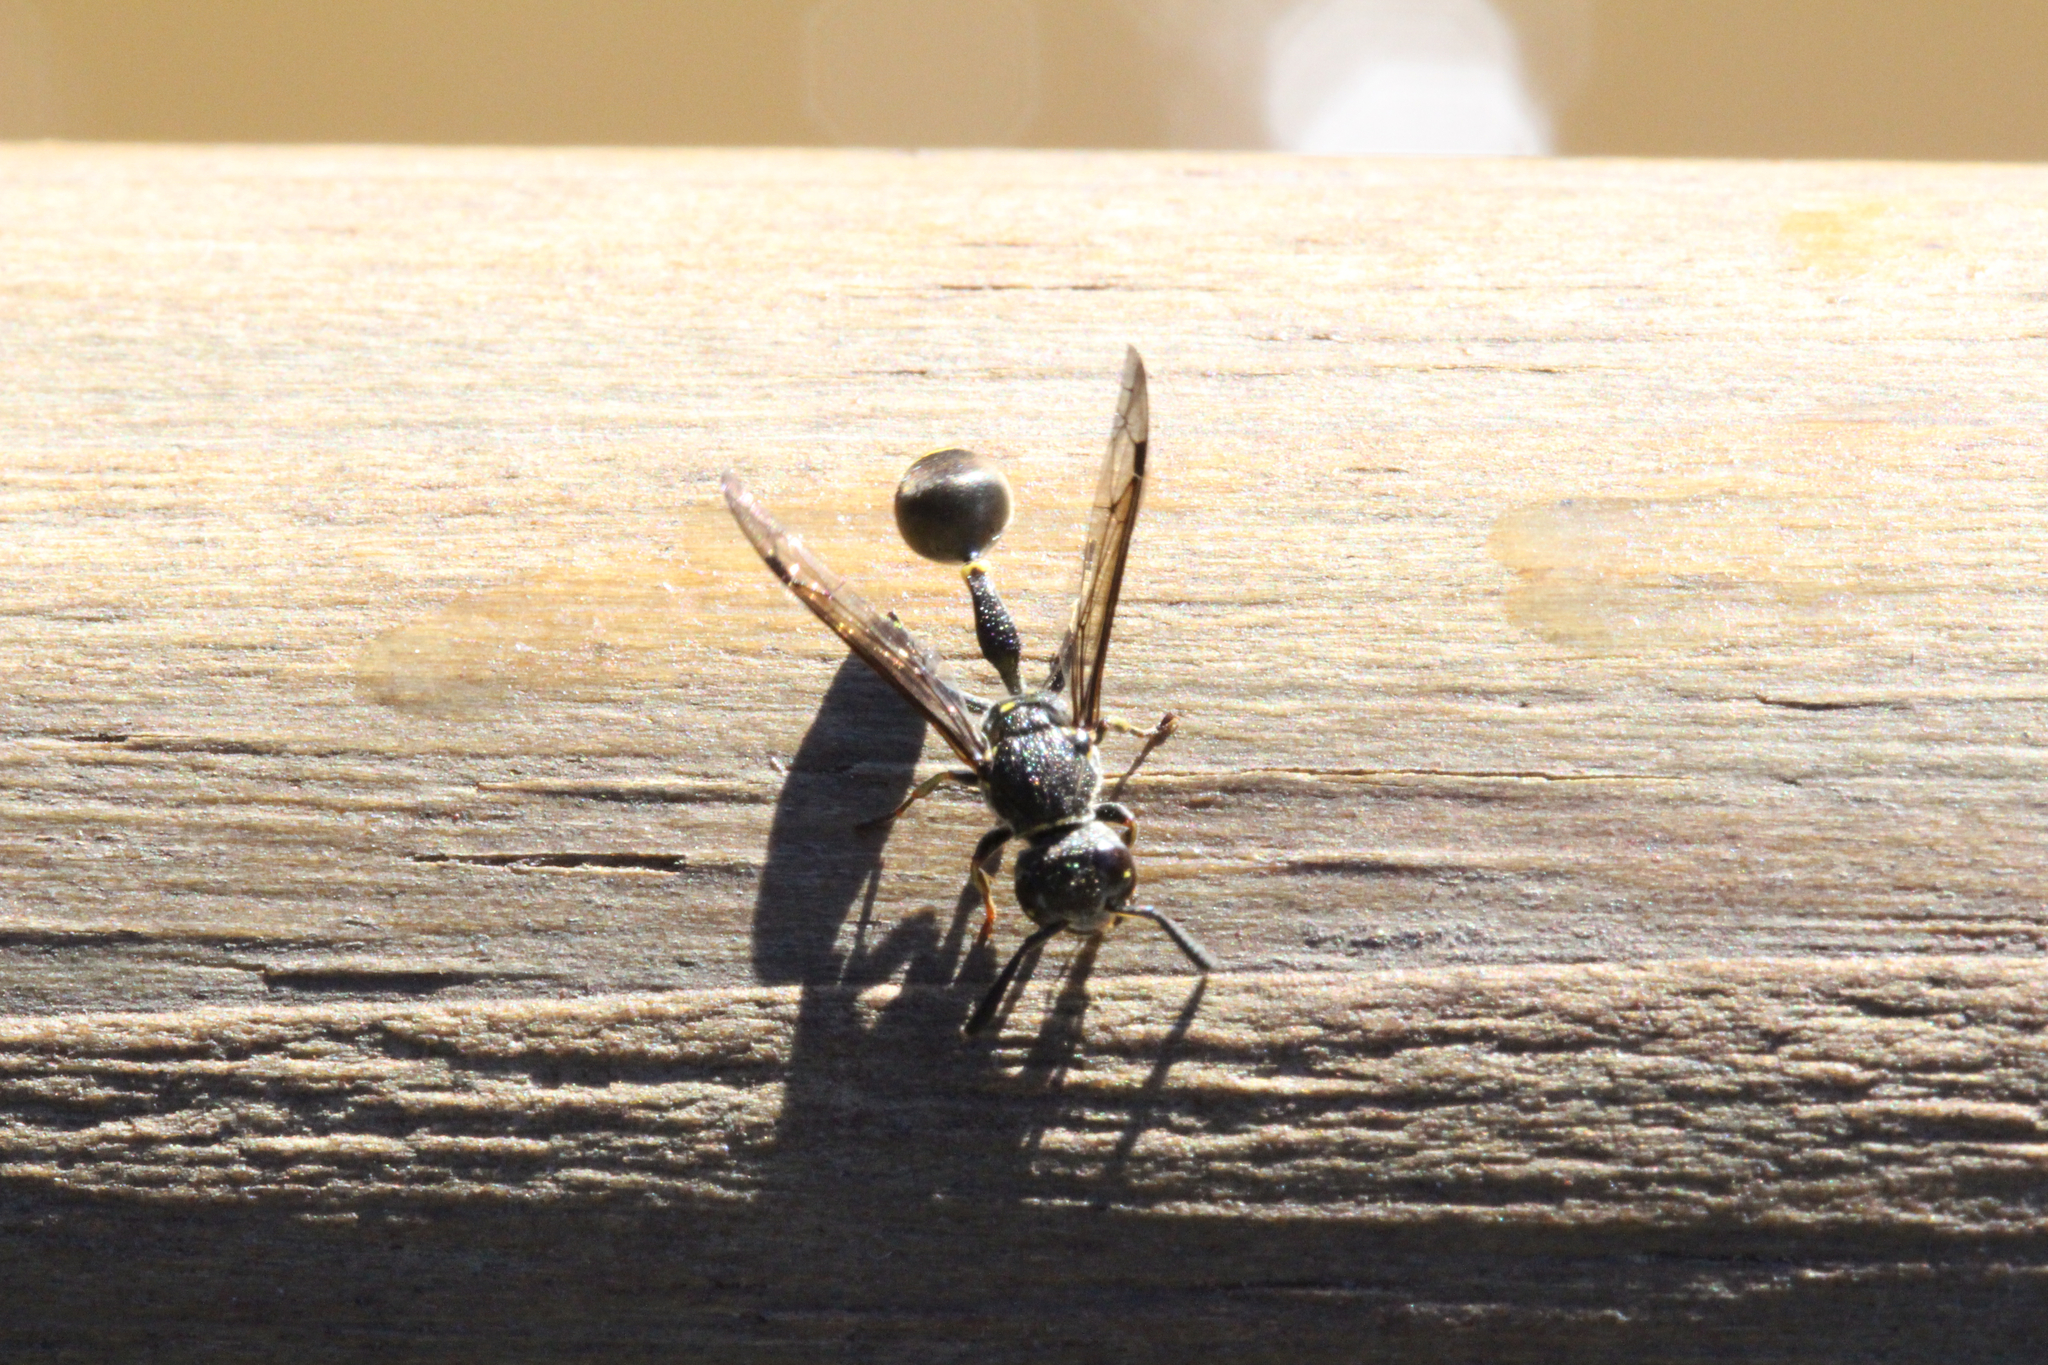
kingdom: Animalia
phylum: Arthropoda
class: Insecta
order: Hymenoptera
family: Eumenidae
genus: Zethus
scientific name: Zethus cylindricus
